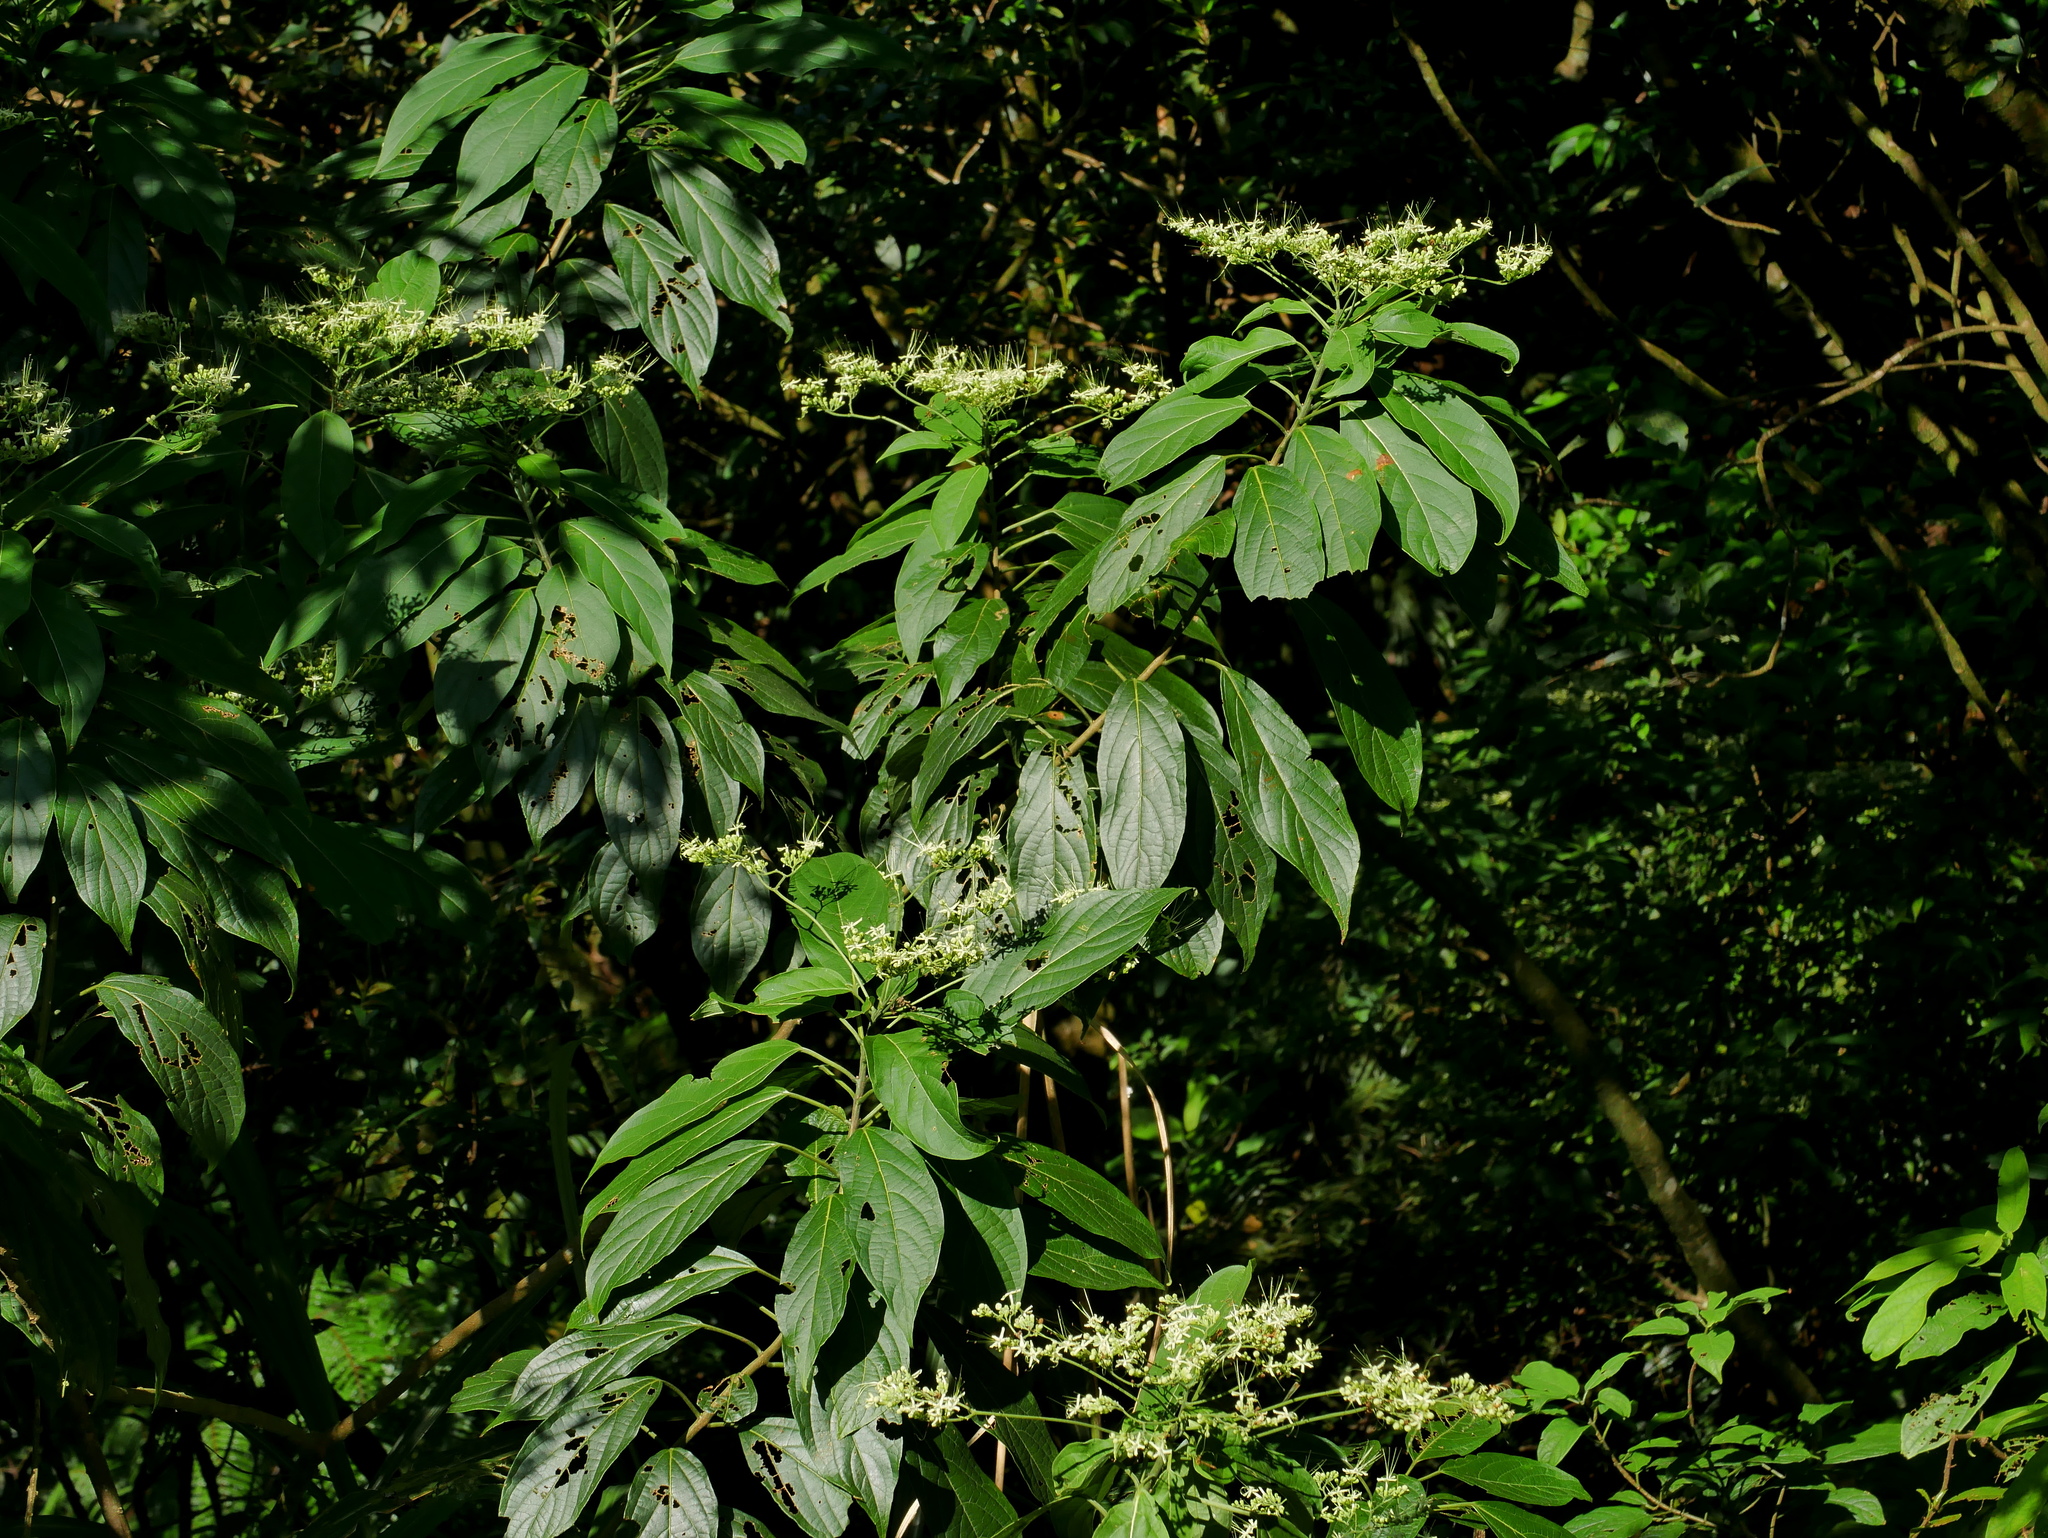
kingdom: Plantae
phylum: Tracheophyta
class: Magnoliopsida
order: Lamiales
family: Lamiaceae
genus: Clerodendrum
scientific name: Clerodendrum cyrtophyllum
